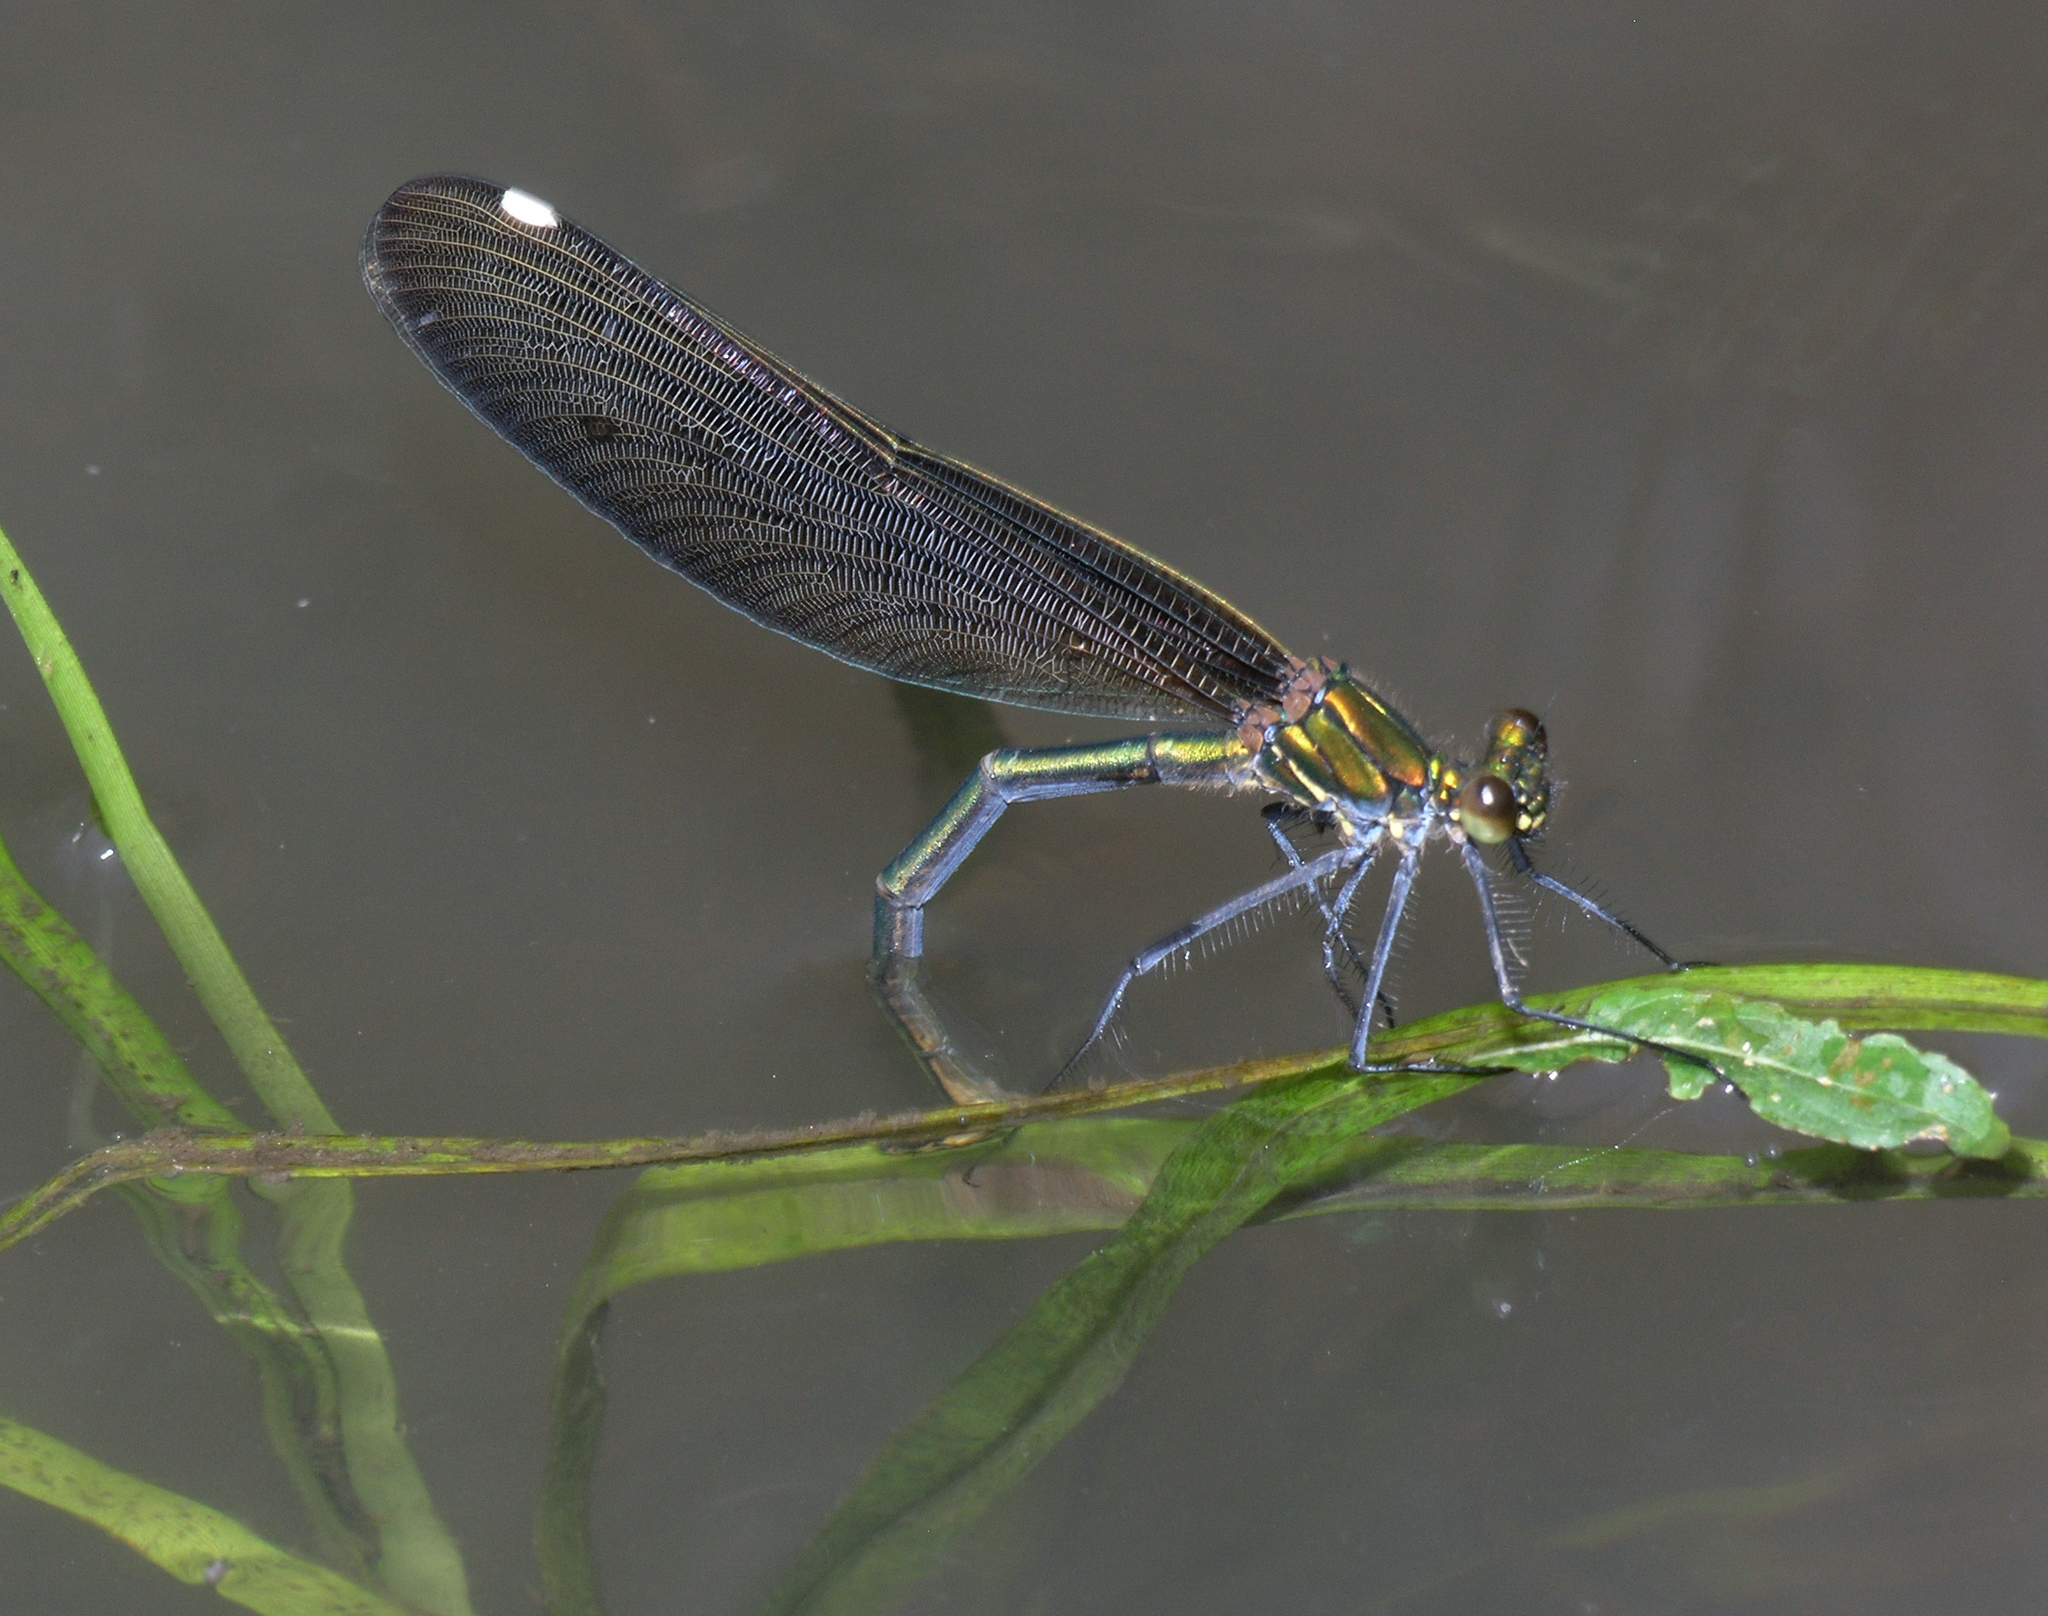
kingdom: Animalia
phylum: Arthropoda
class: Insecta
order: Odonata
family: Calopterygidae
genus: Calopteryx
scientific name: Calopteryx japonica
